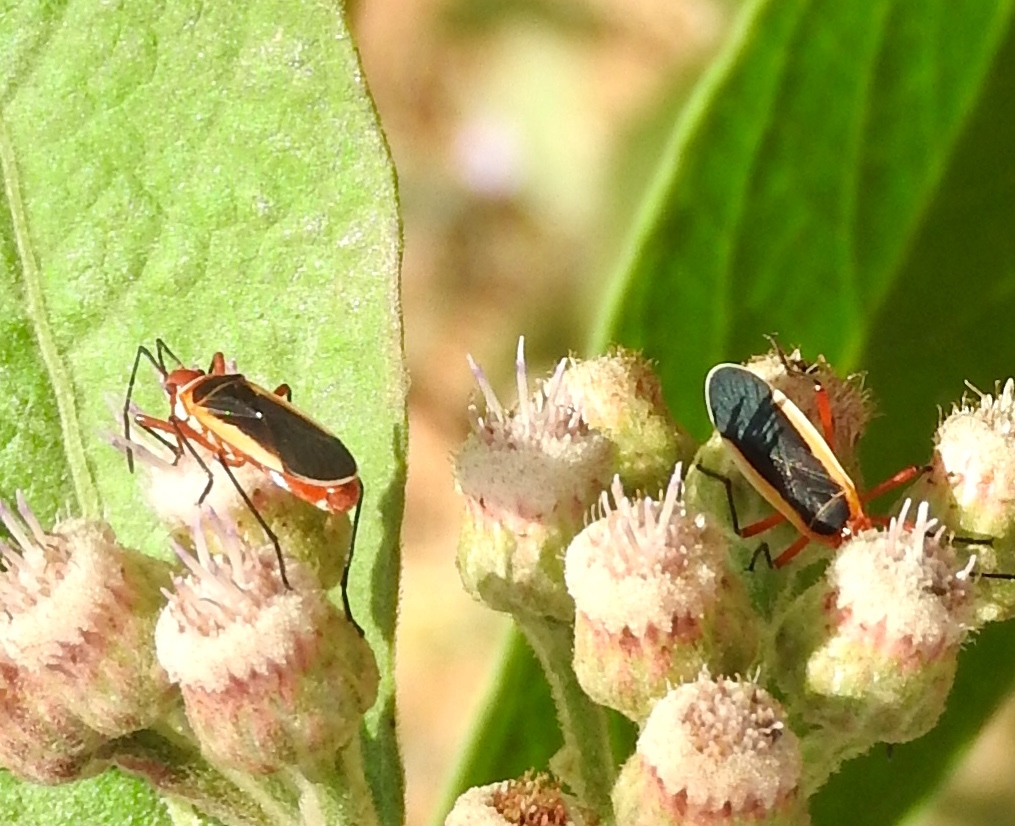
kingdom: Animalia
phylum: Arthropoda
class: Insecta
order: Hemiptera
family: Pyrrhocoridae
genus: Dysdercus
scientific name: Dysdercus obscuratus
